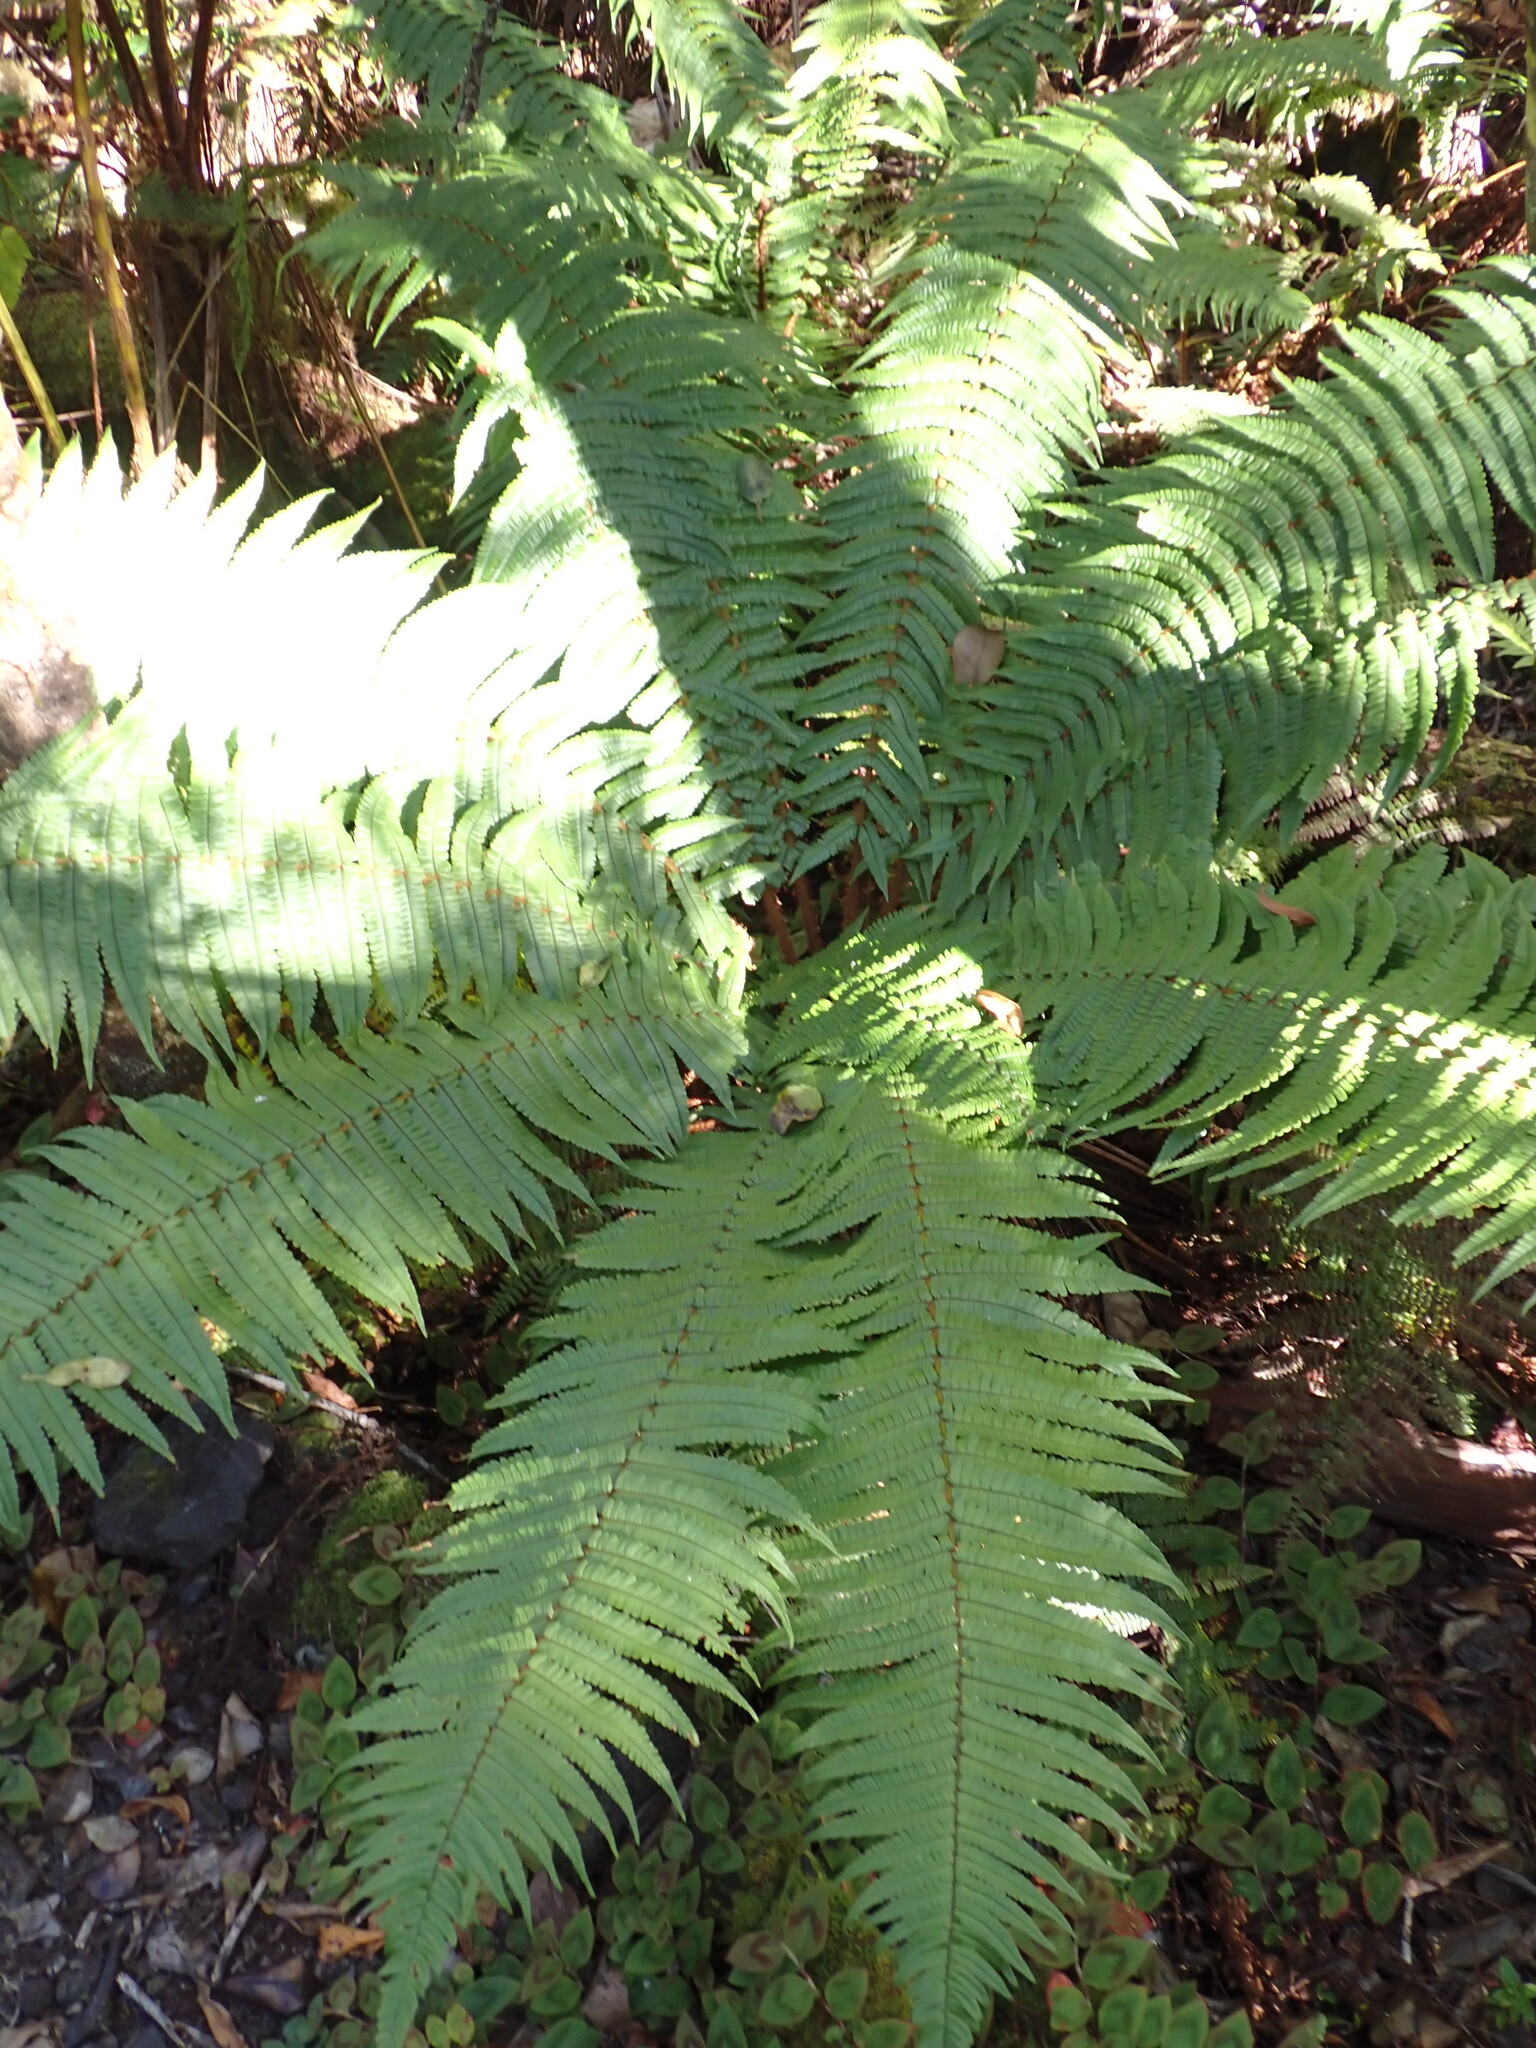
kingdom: Plantae
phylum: Tracheophyta
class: Polypodiopsida
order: Polypodiales
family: Dryopteridaceae
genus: Dryopteris
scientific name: Dryopteris wallichiana
